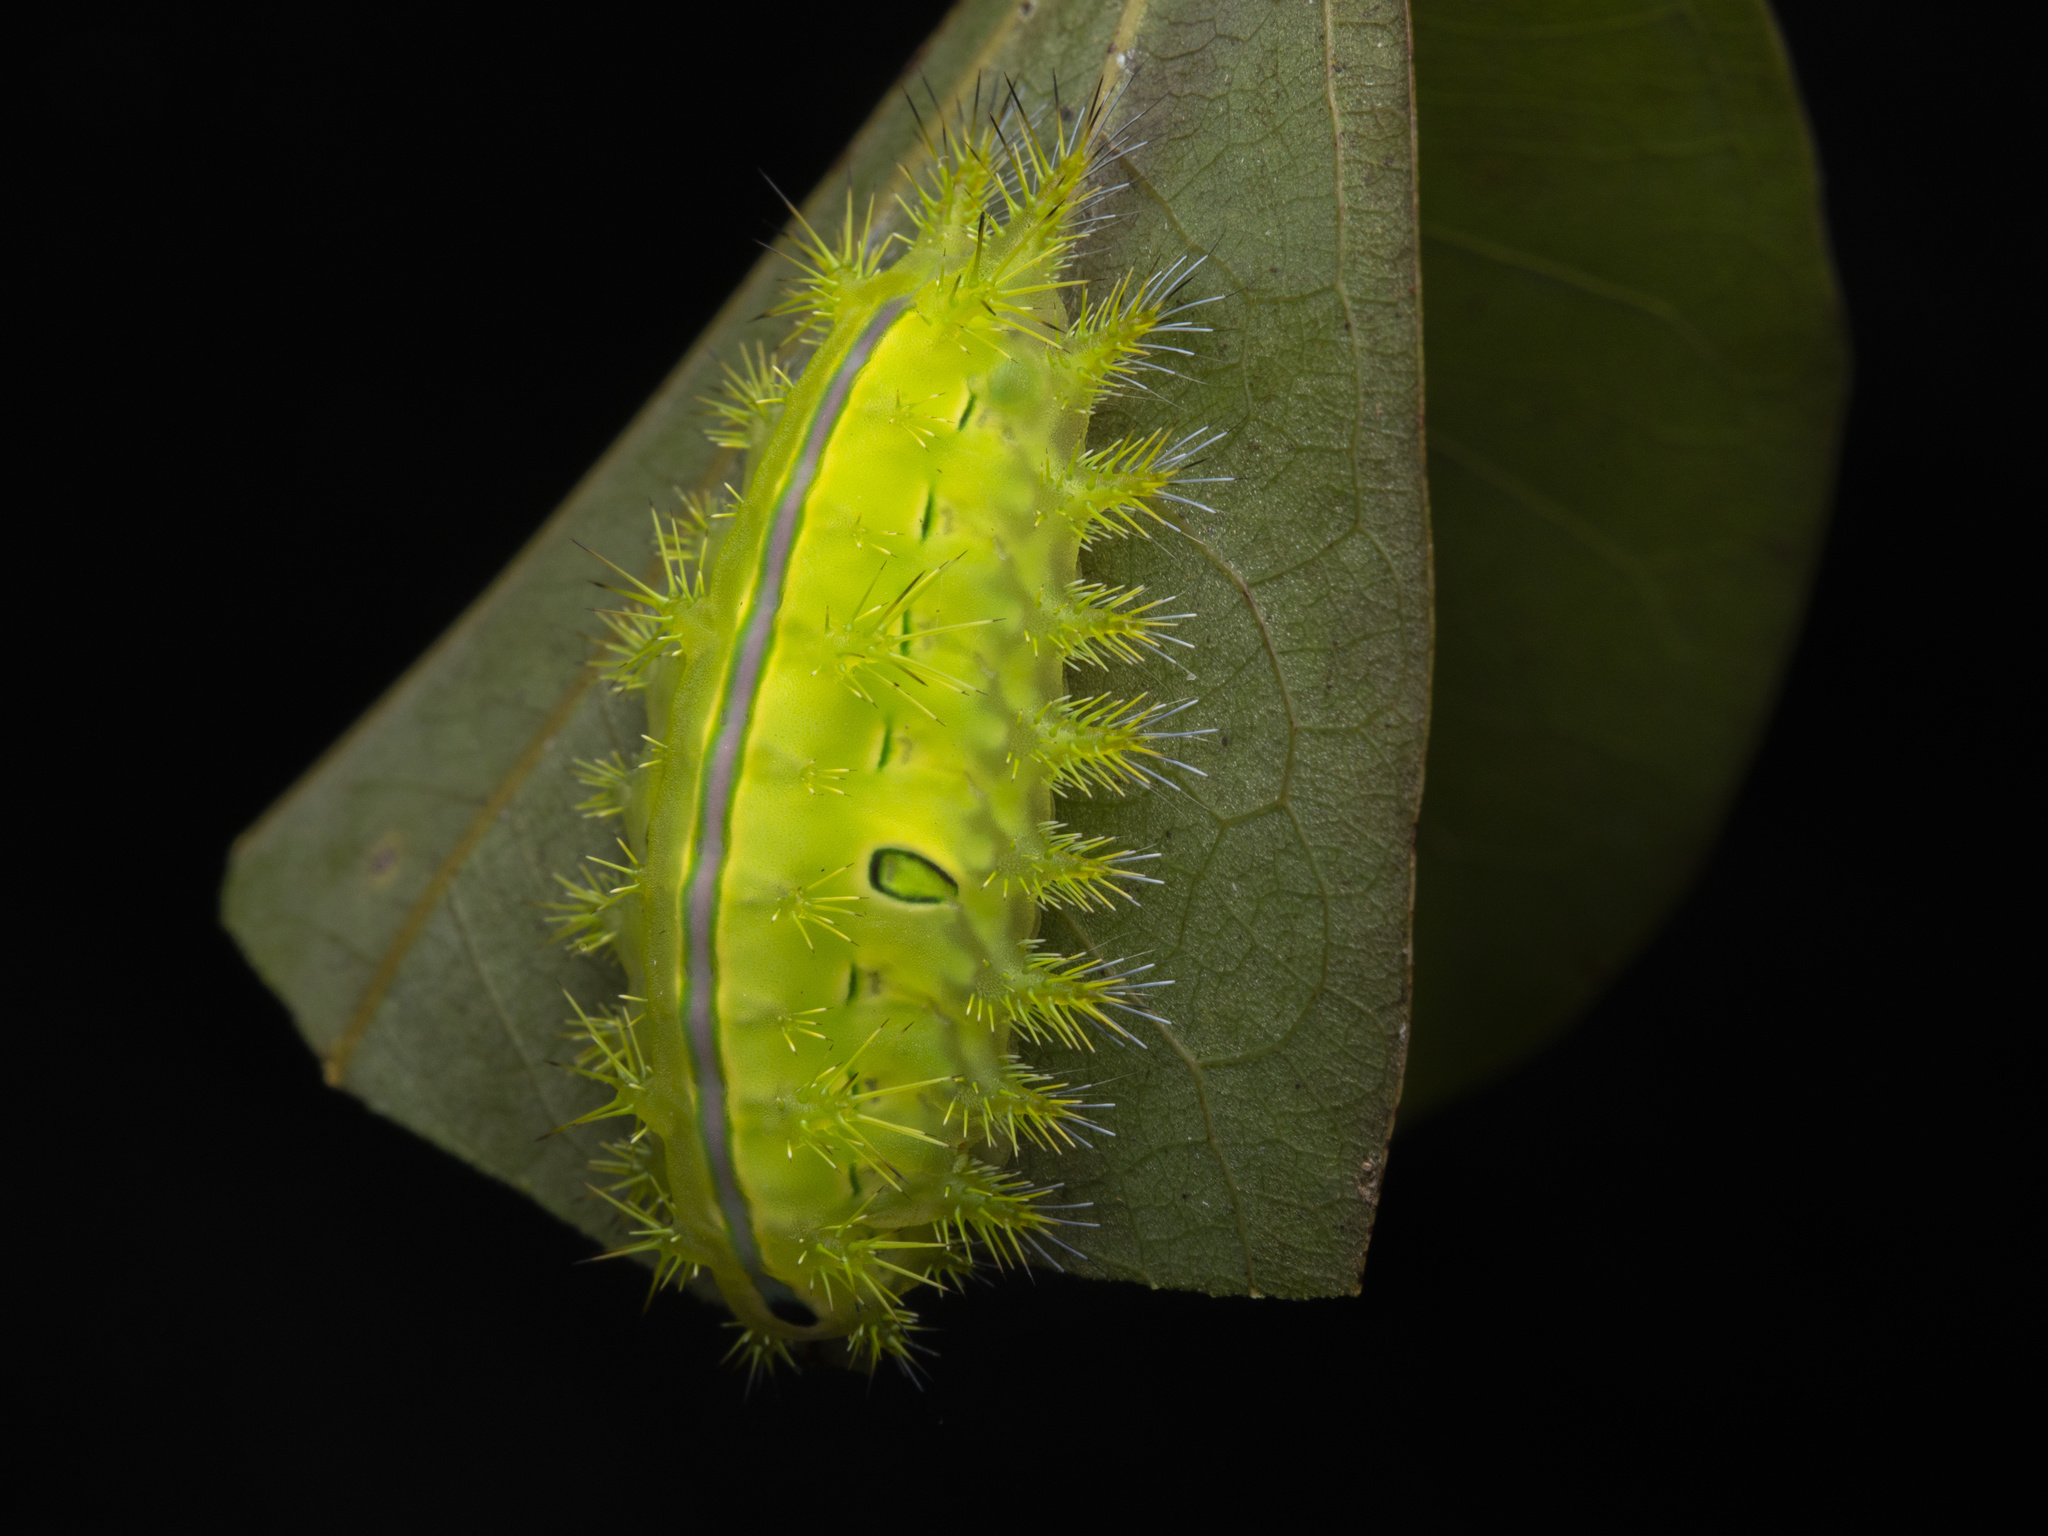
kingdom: Animalia
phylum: Arthropoda
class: Insecta
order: Lepidoptera
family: Limacodidae
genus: Quasithosea
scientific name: Quasithosea obliquistriga
